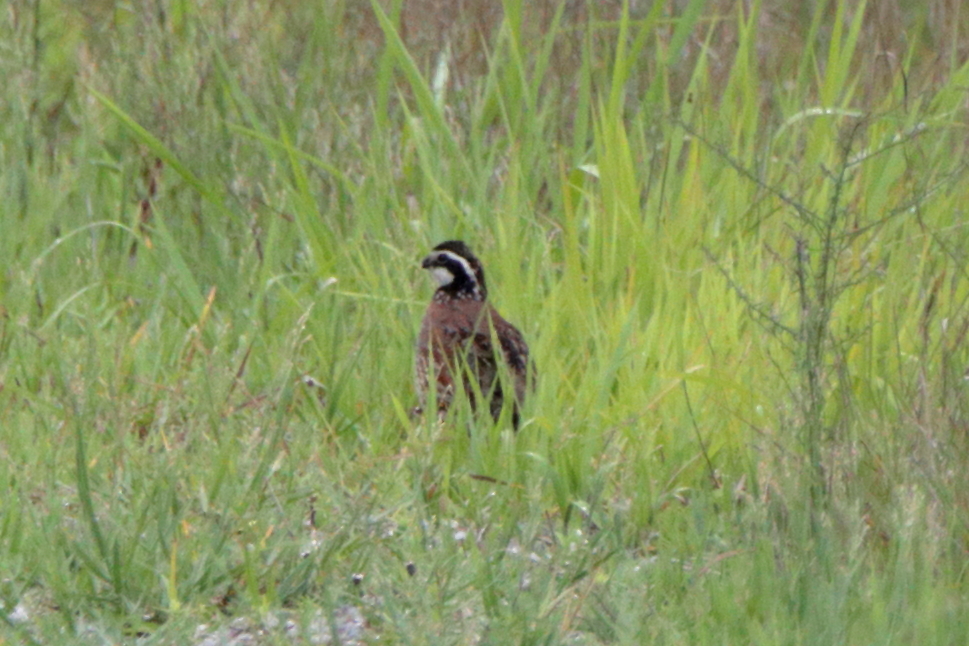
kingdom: Animalia
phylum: Chordata
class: Aves
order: Galliformes
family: Odontophoridae
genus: Colinus
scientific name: Colinus virginianus
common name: Northern bobwhite
